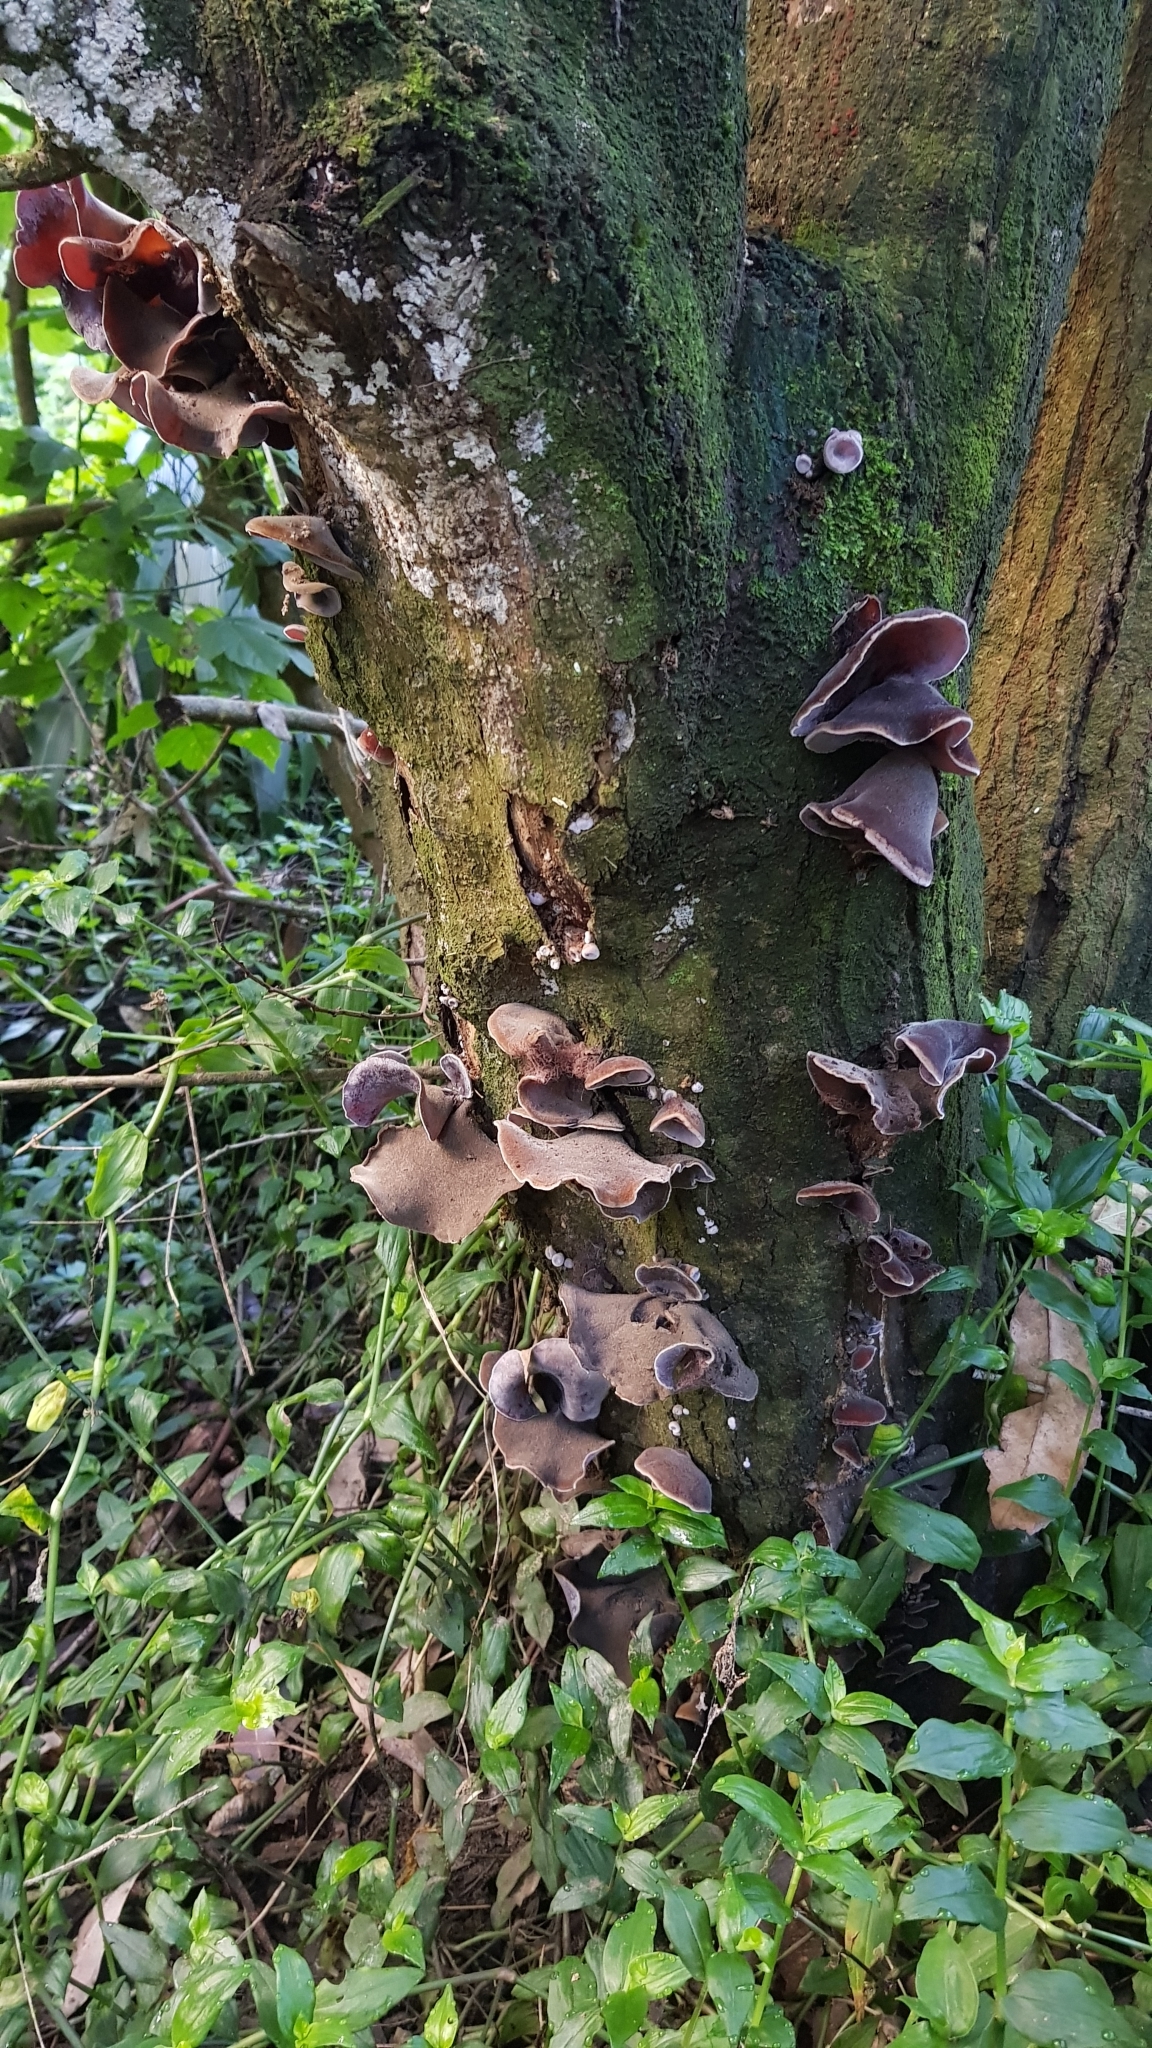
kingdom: Fungi
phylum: Basidiomycota
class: Agaricomycetes
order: Auriculariales
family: Auriculariaceae
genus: Auricularia
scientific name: Auricularia cornea
